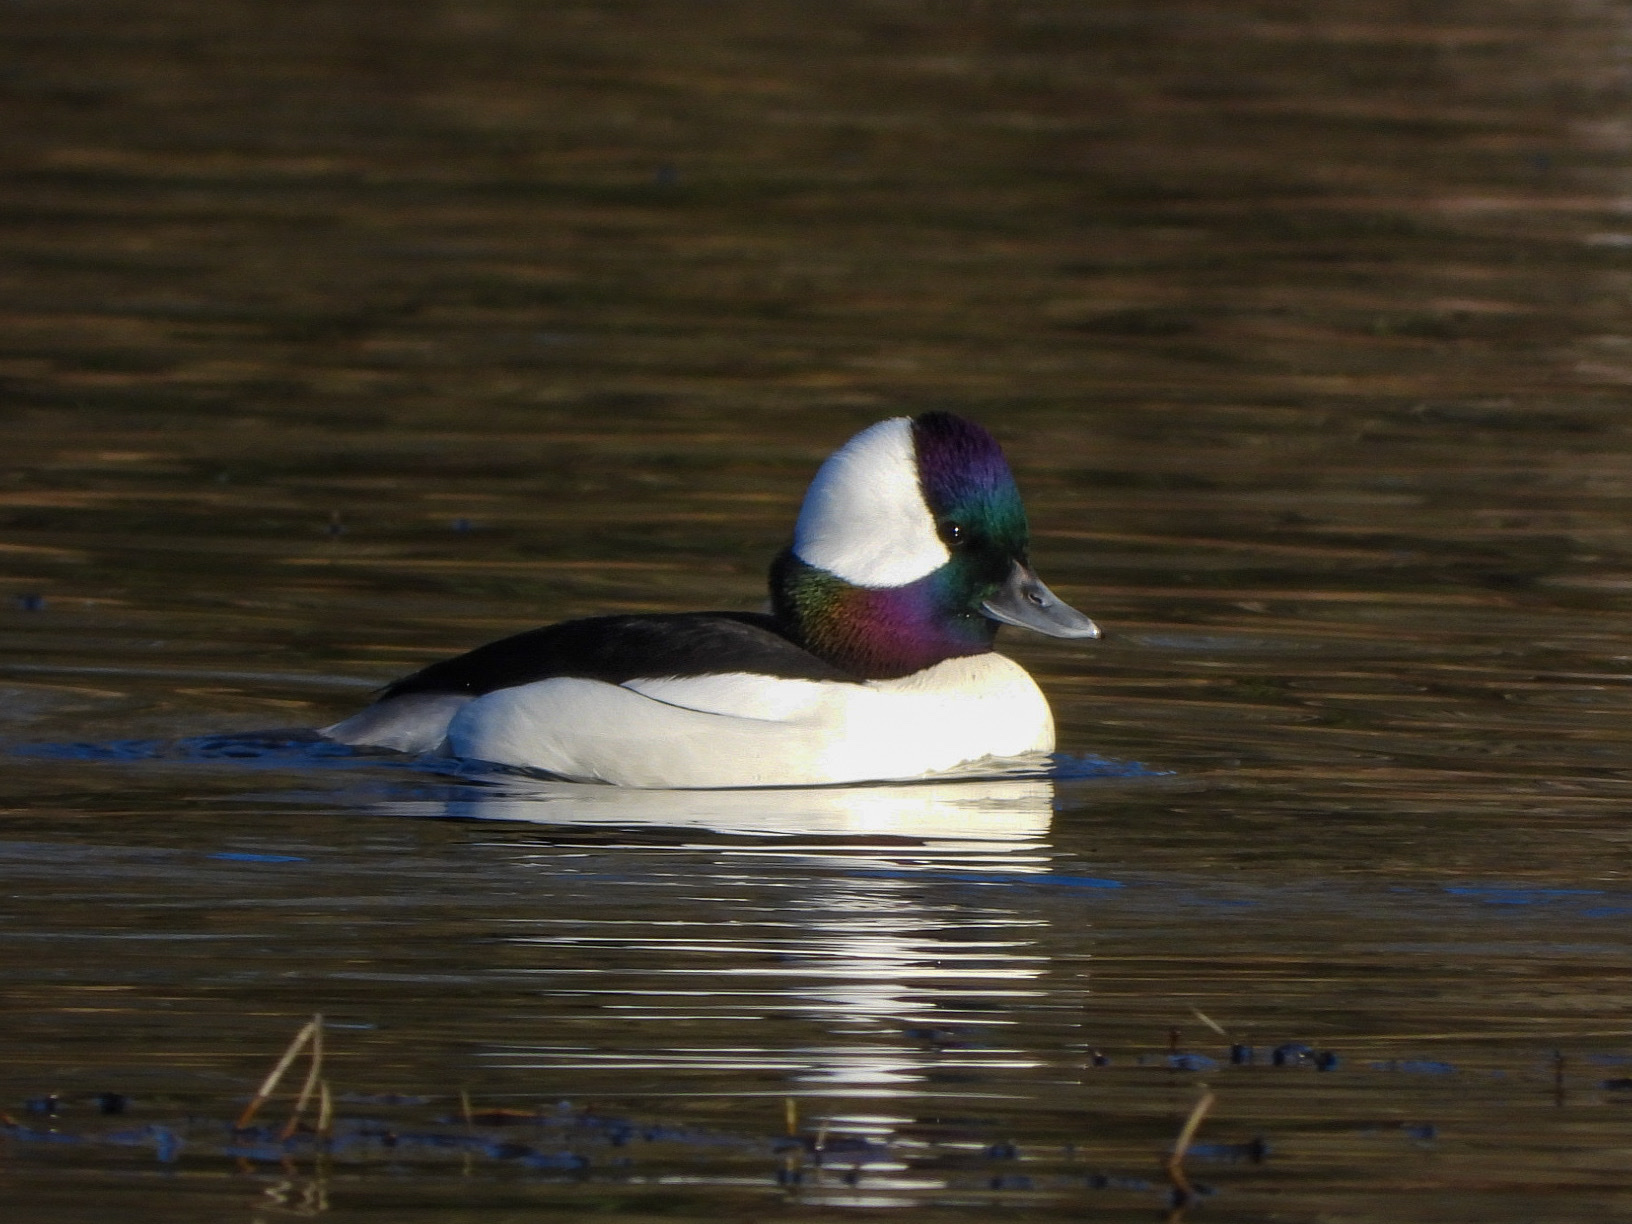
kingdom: Animalia
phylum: Chordata
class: Aves
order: Anseriformes
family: Anatidae
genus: Bucephala
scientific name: Bucephala albeola
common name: Bufflehead
